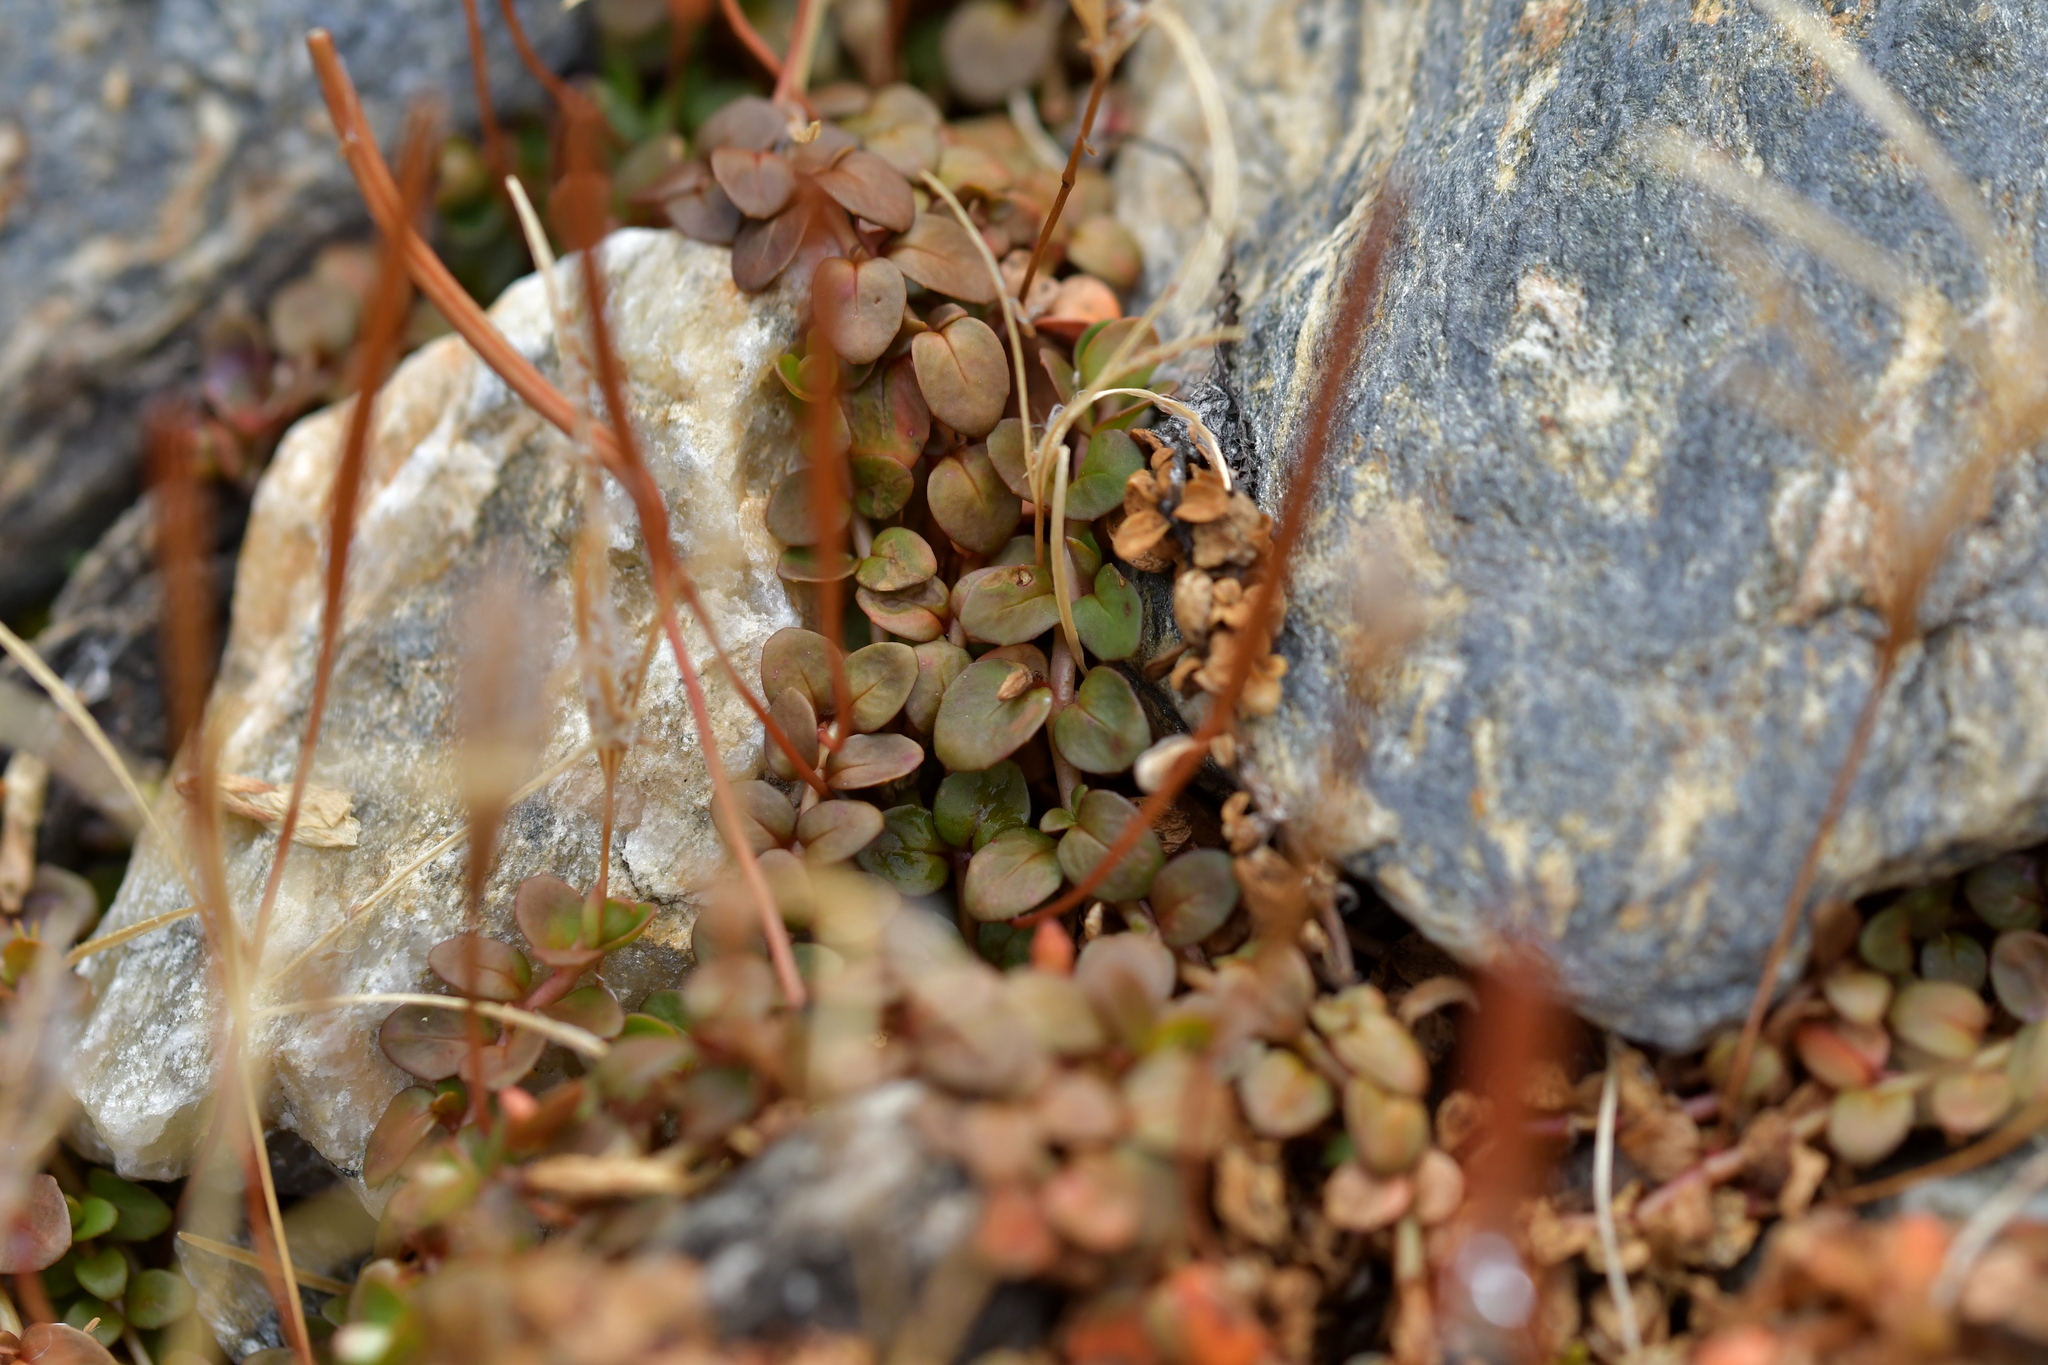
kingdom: Plantae
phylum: Tracheophyta
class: Magnoliopsida
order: Myrtales
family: Onagraceae
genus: Epilobium
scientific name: Epilobium brunnescens
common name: New zealand willowherb
